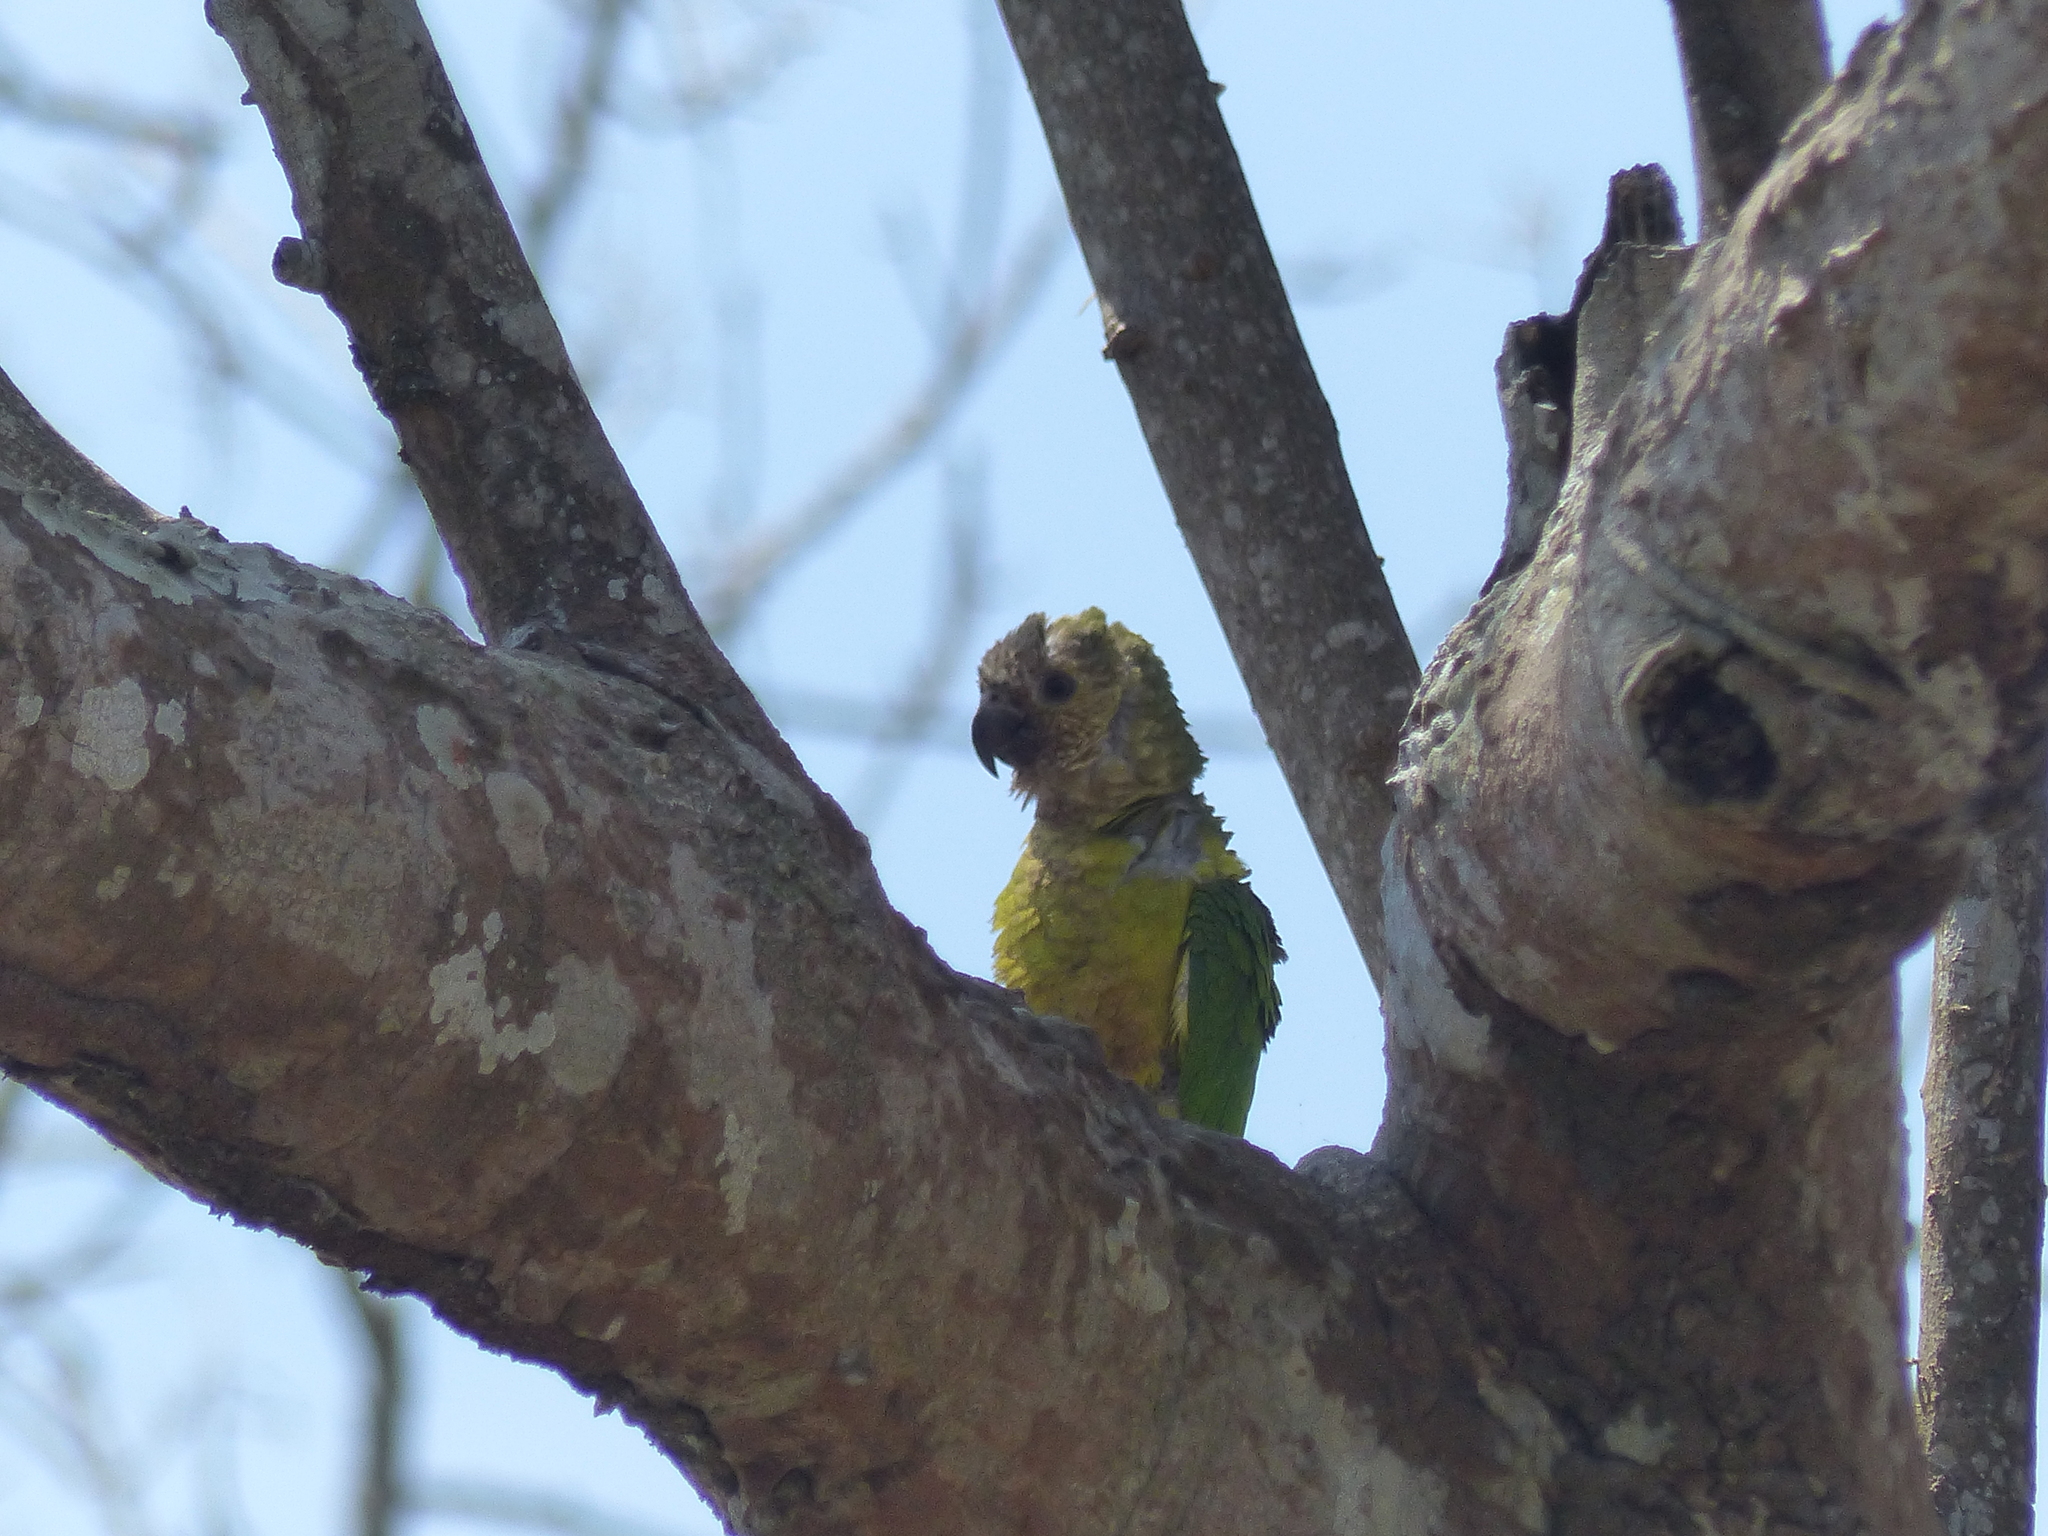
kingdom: Animalia
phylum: Chordata
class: Aves
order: Psittaciformes
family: Psittacidae
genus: Aratinga
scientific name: Aratinga pertinax
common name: Brown-throated parakeet
